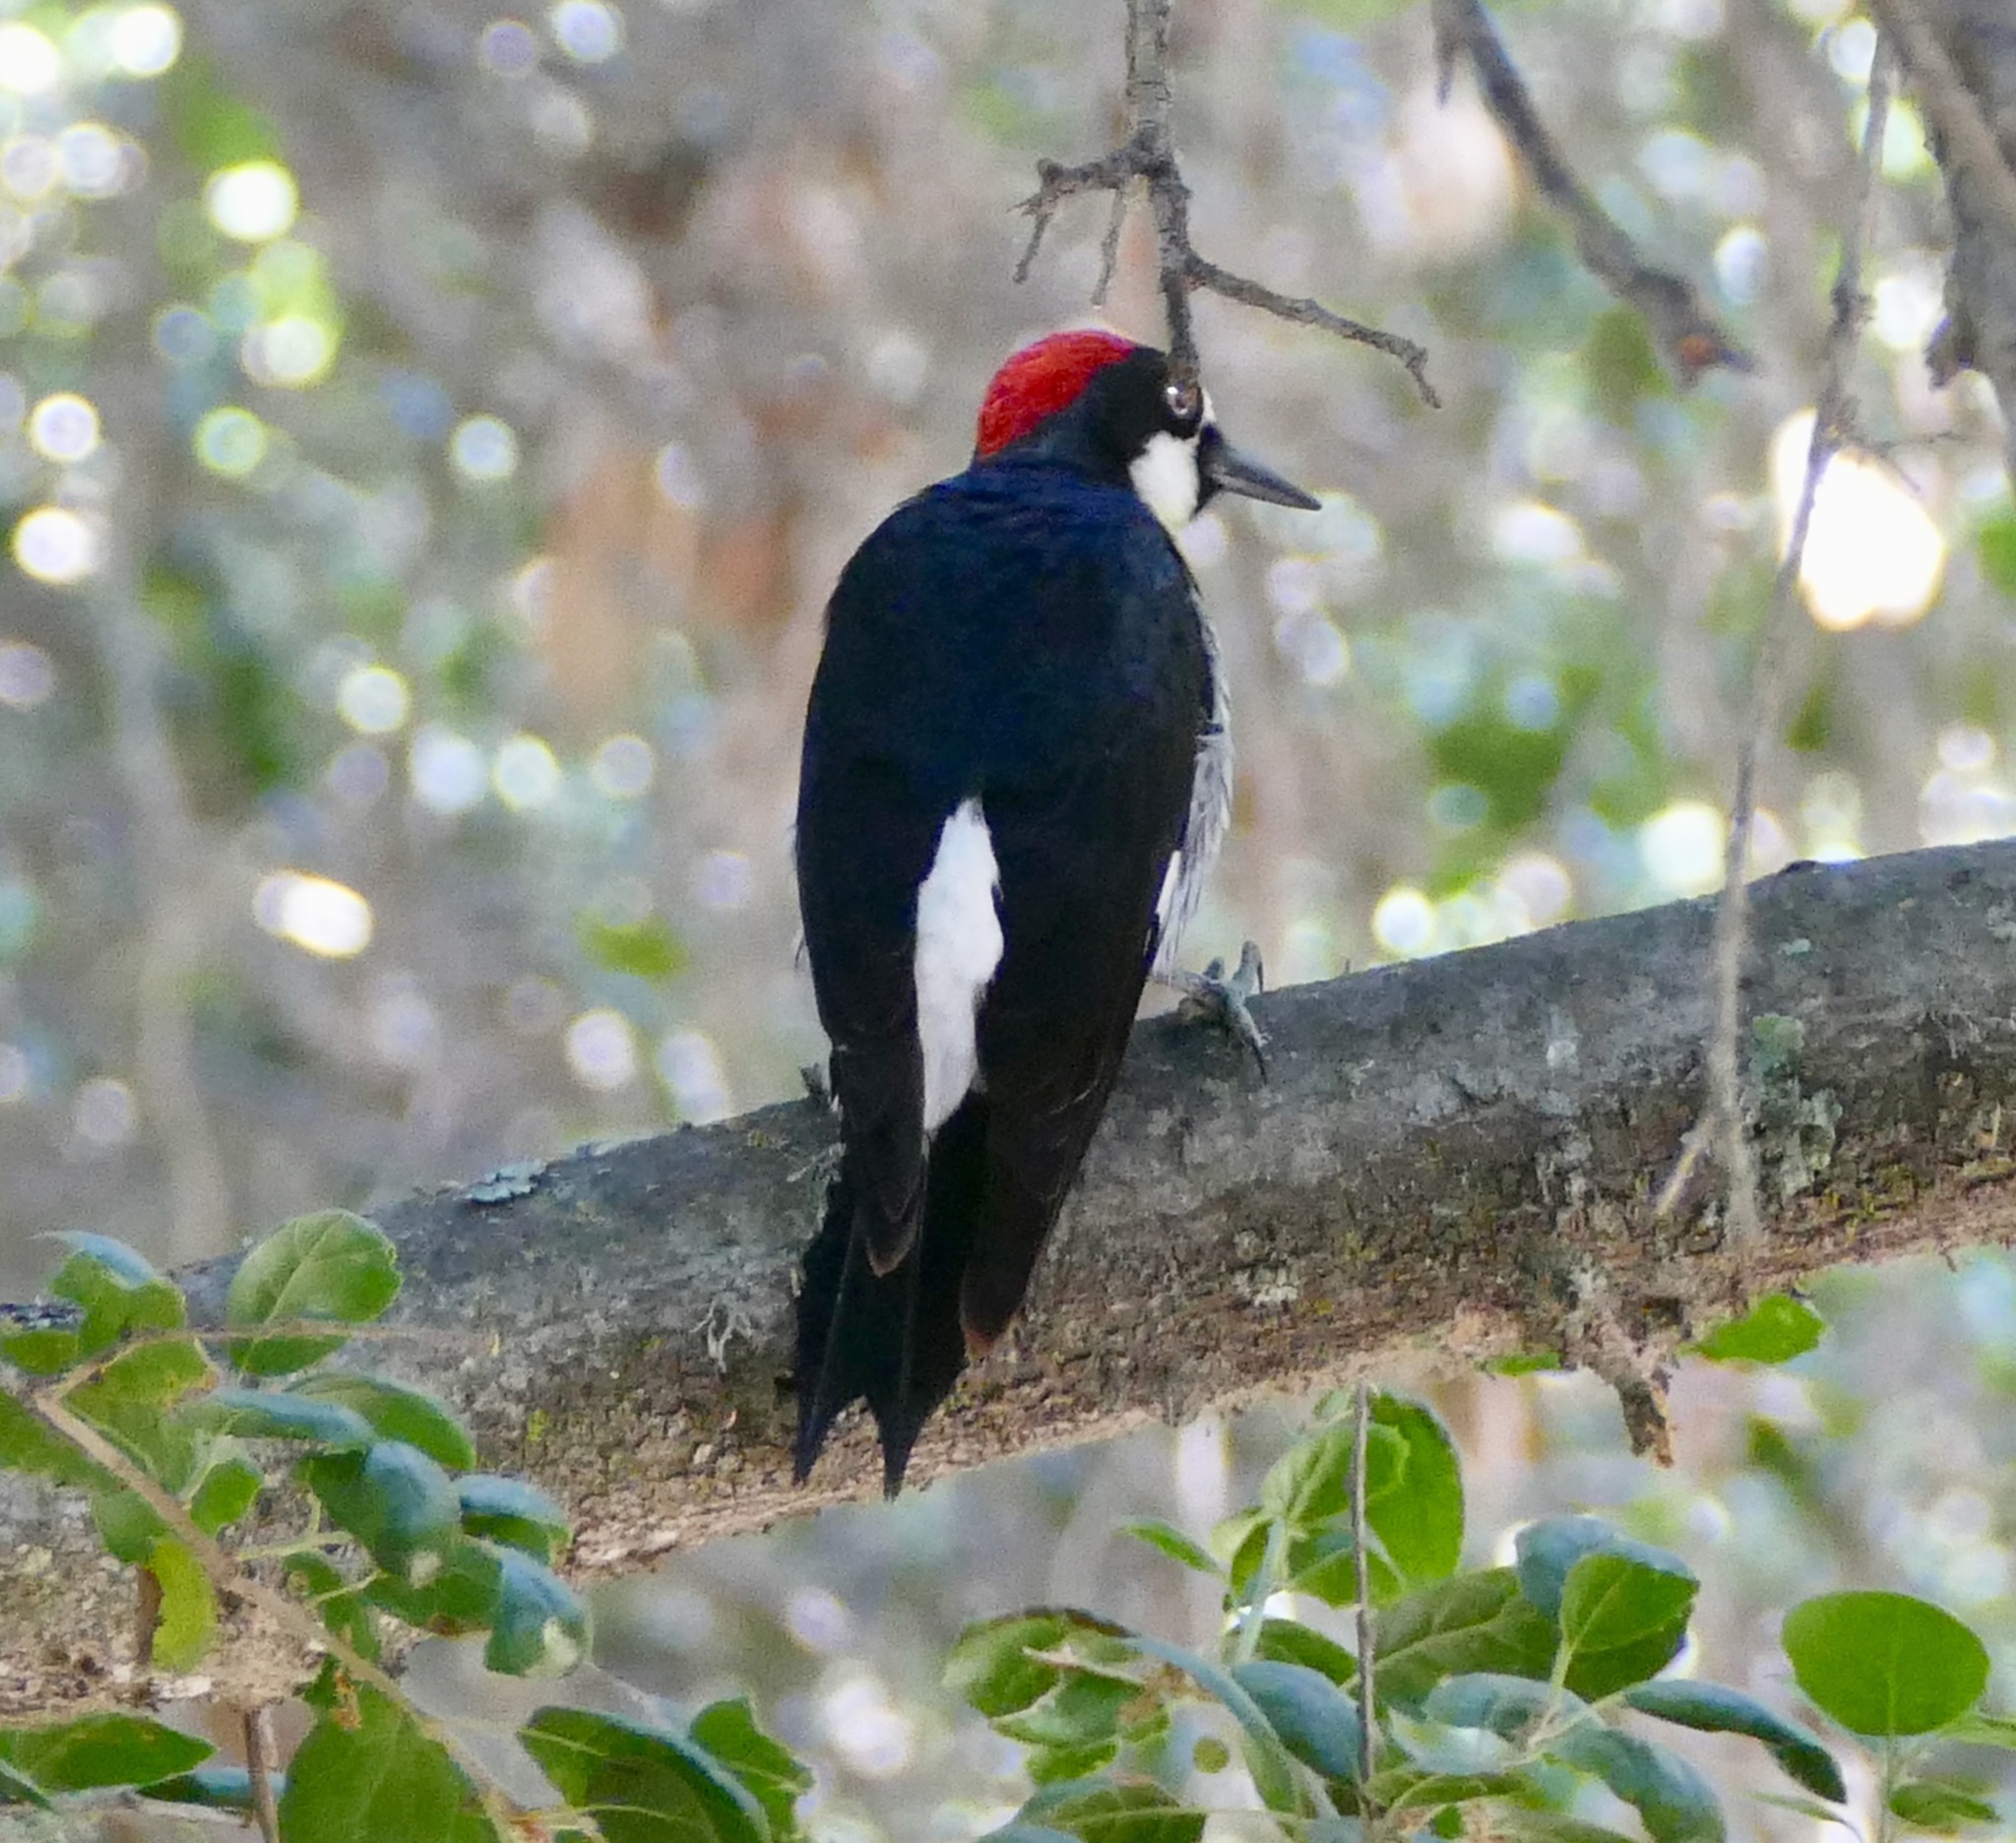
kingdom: Animalia
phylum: Chordata
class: Aves
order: Piciformes
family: Picidae
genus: Melanerpes
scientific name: Melanerpes formicivorus
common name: Acorn woodpecker
